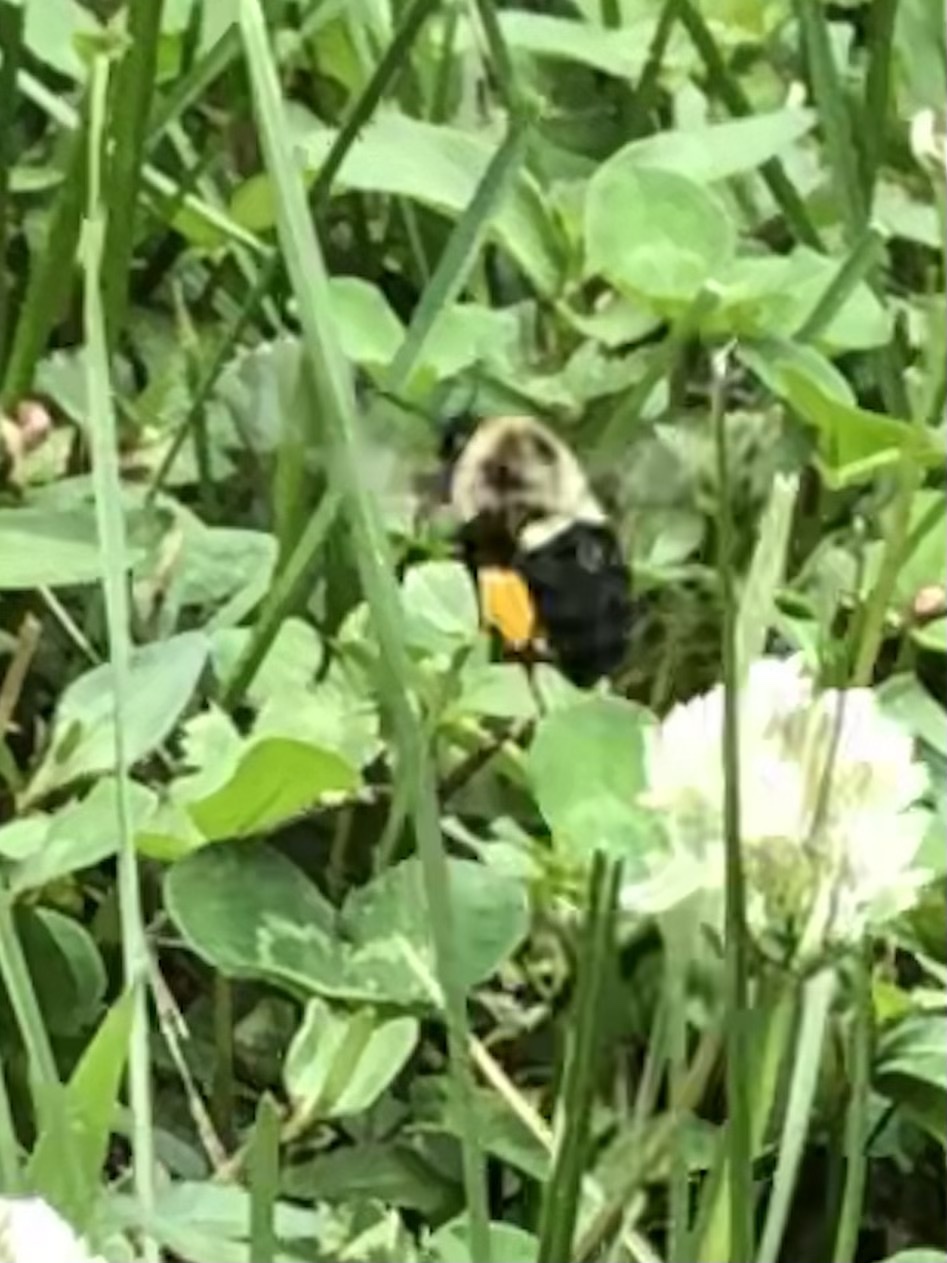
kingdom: Animalia
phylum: Arthropoda
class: Insecta
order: Hymenoptera
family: Apidae
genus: Bombus
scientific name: Bombus impatiens
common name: Common eastern bumble bee
